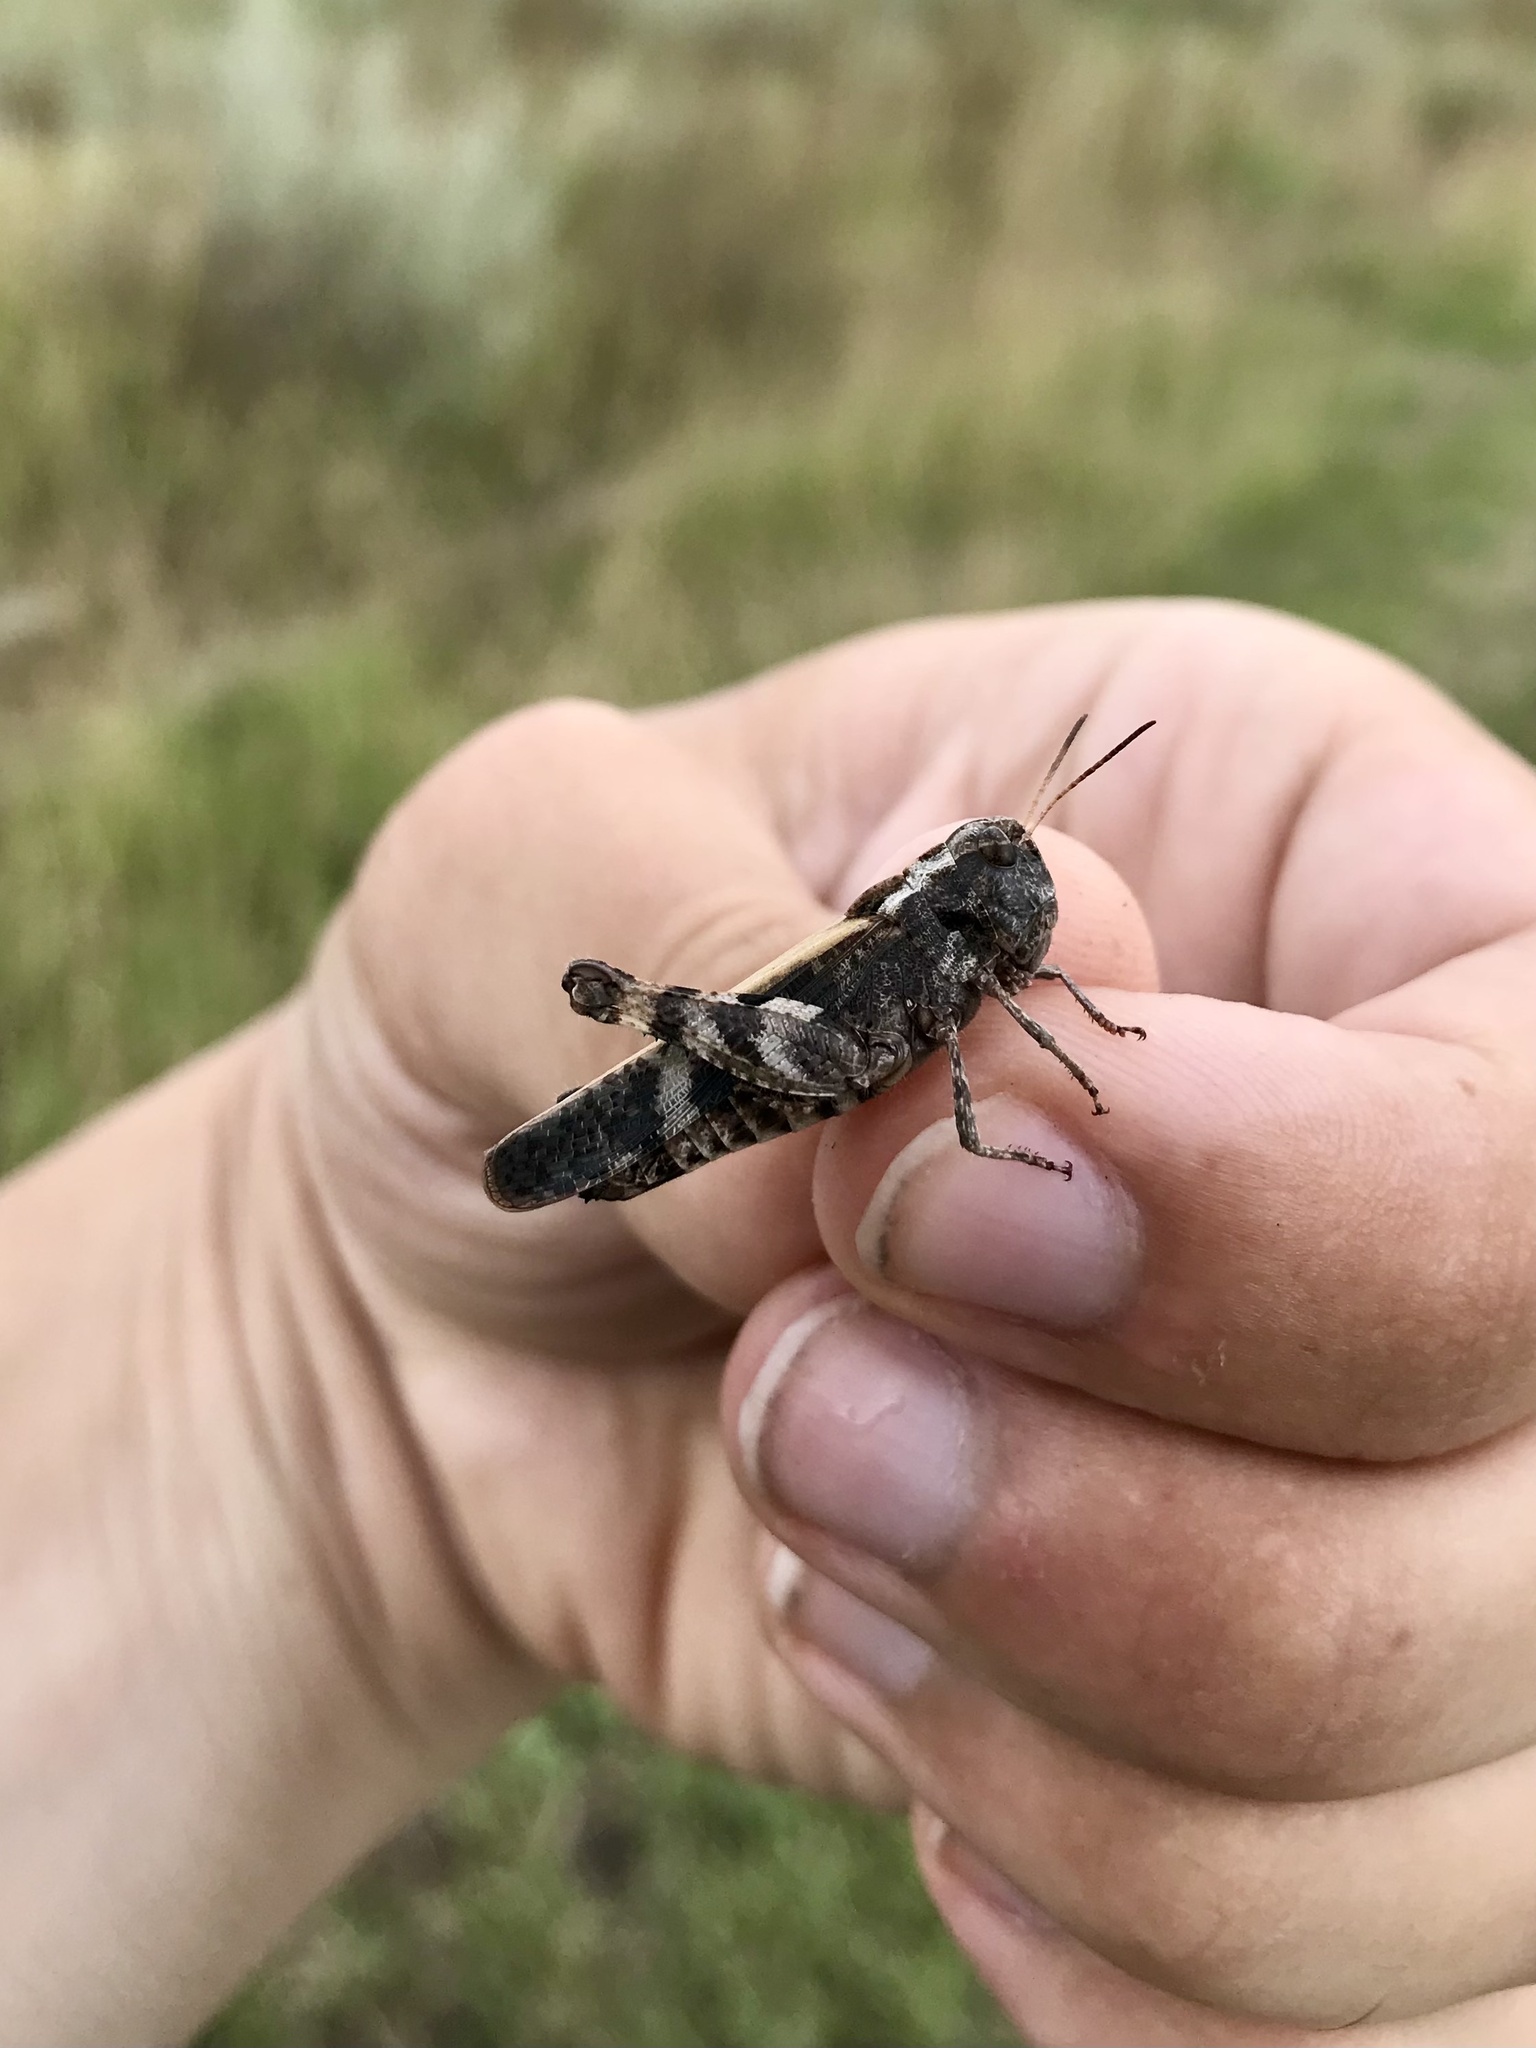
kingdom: Animalia
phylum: Arthropoda
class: Insecta
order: Orthoptera
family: Acrididae
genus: Encoptolophus
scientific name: Encoptolophus costalis
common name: Dusky grasshopper
